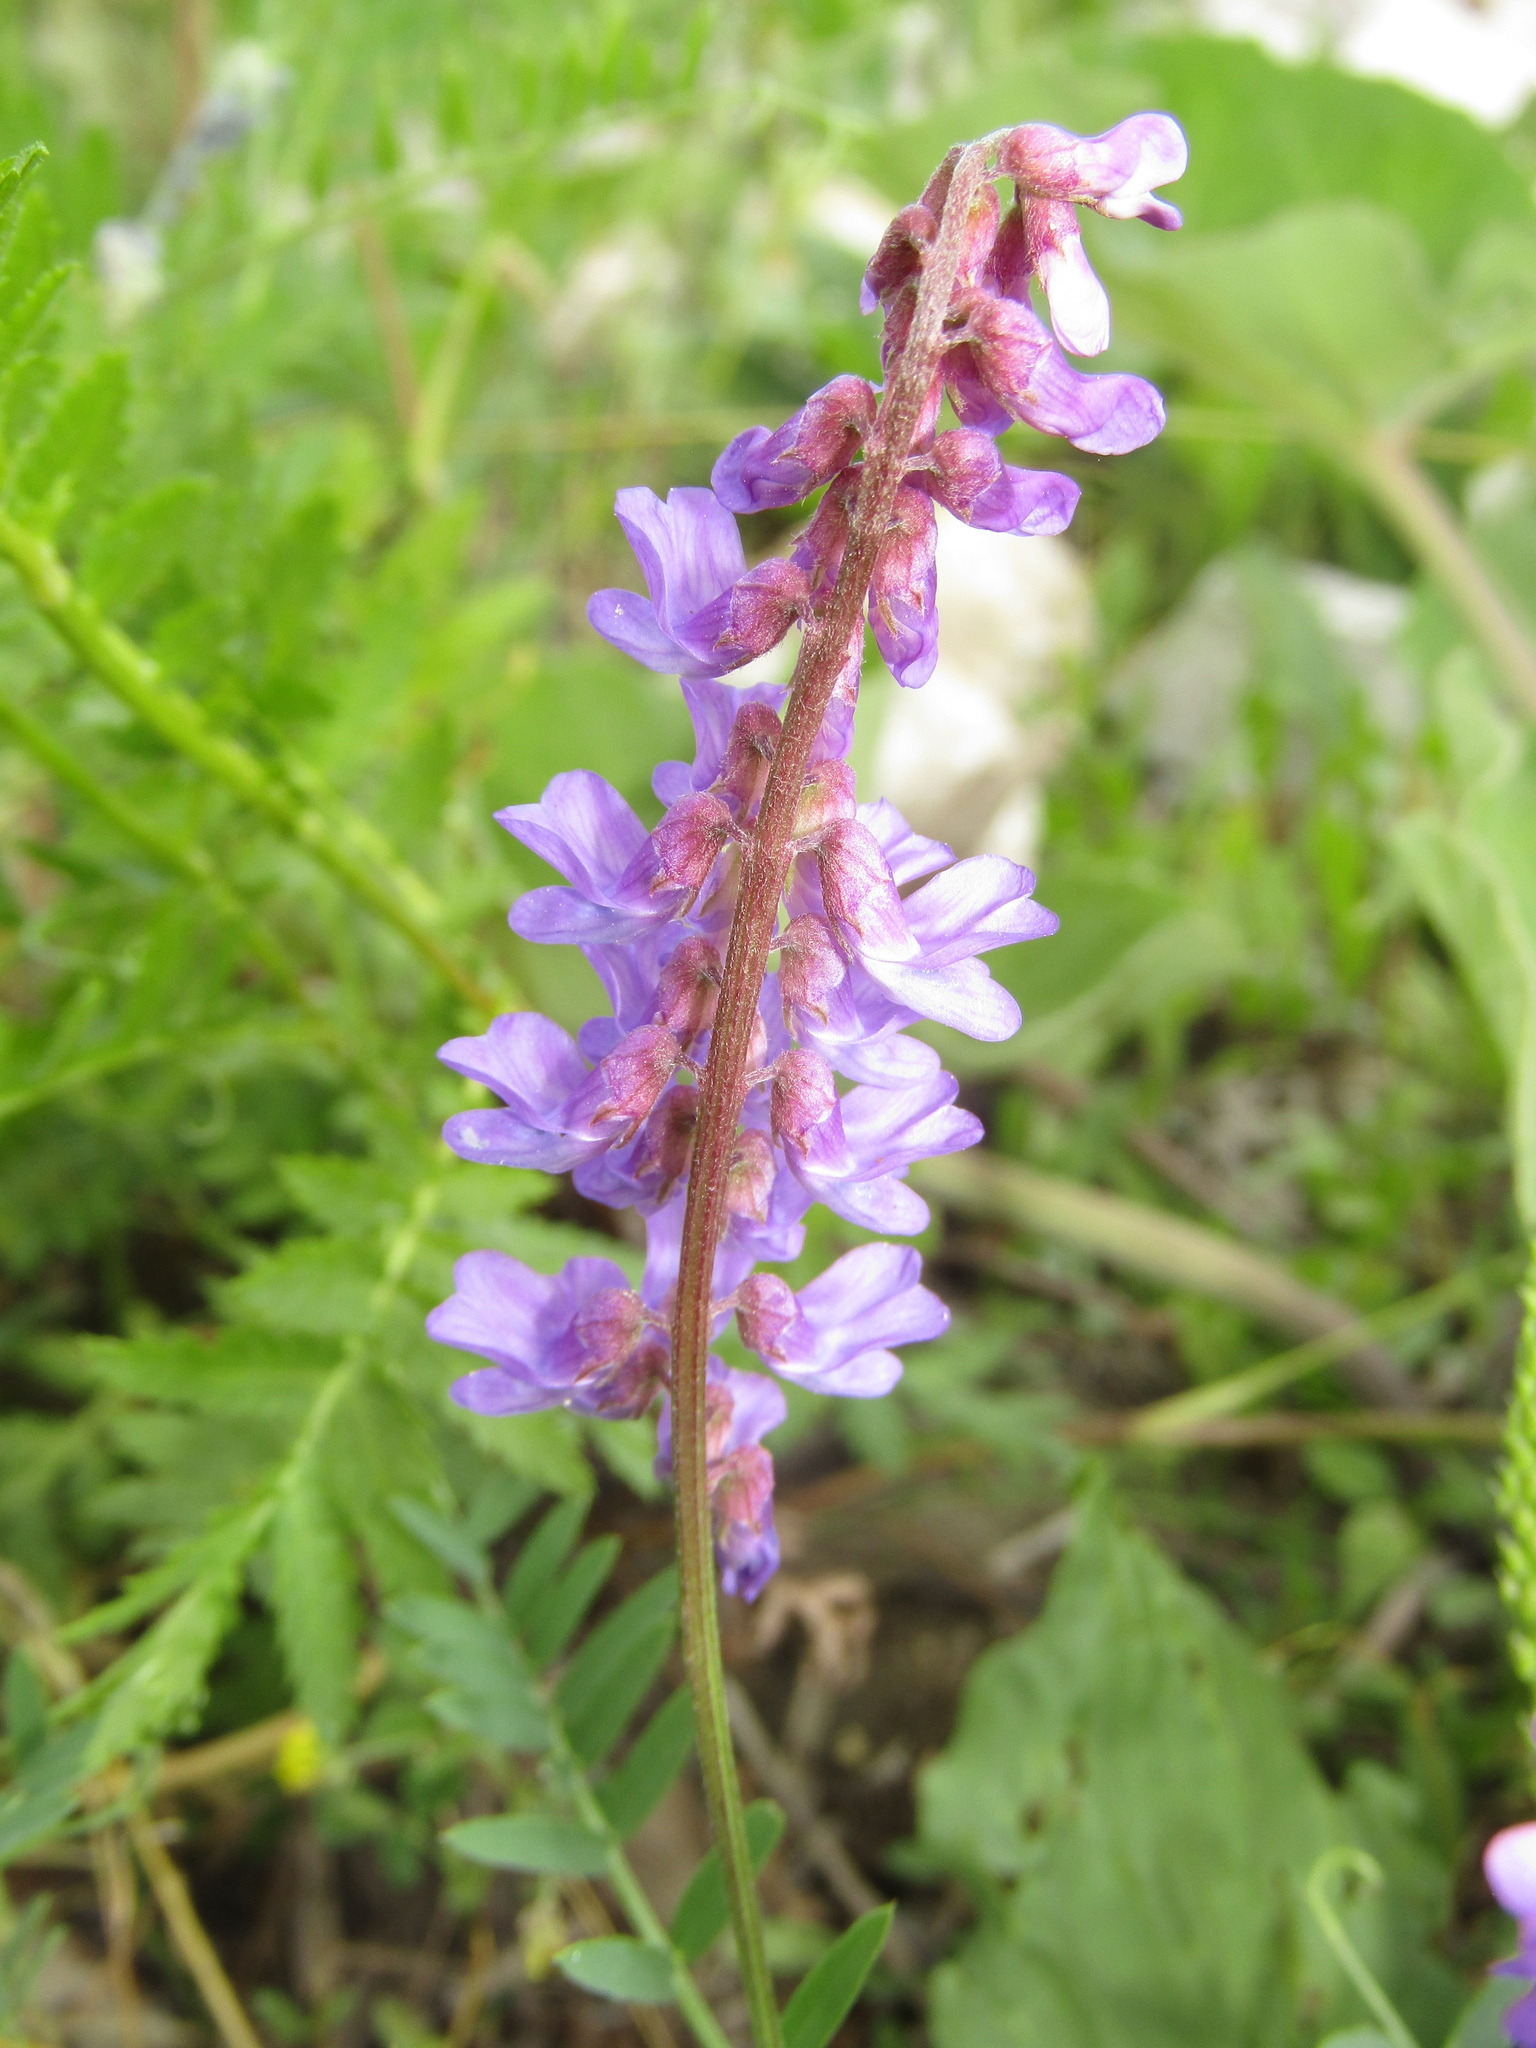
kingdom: Plantae
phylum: Tracheophyta
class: Magnoliopsida
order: Fabales
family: Fabaceae
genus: Vicia
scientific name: Vicia cracca
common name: Bird vetch
